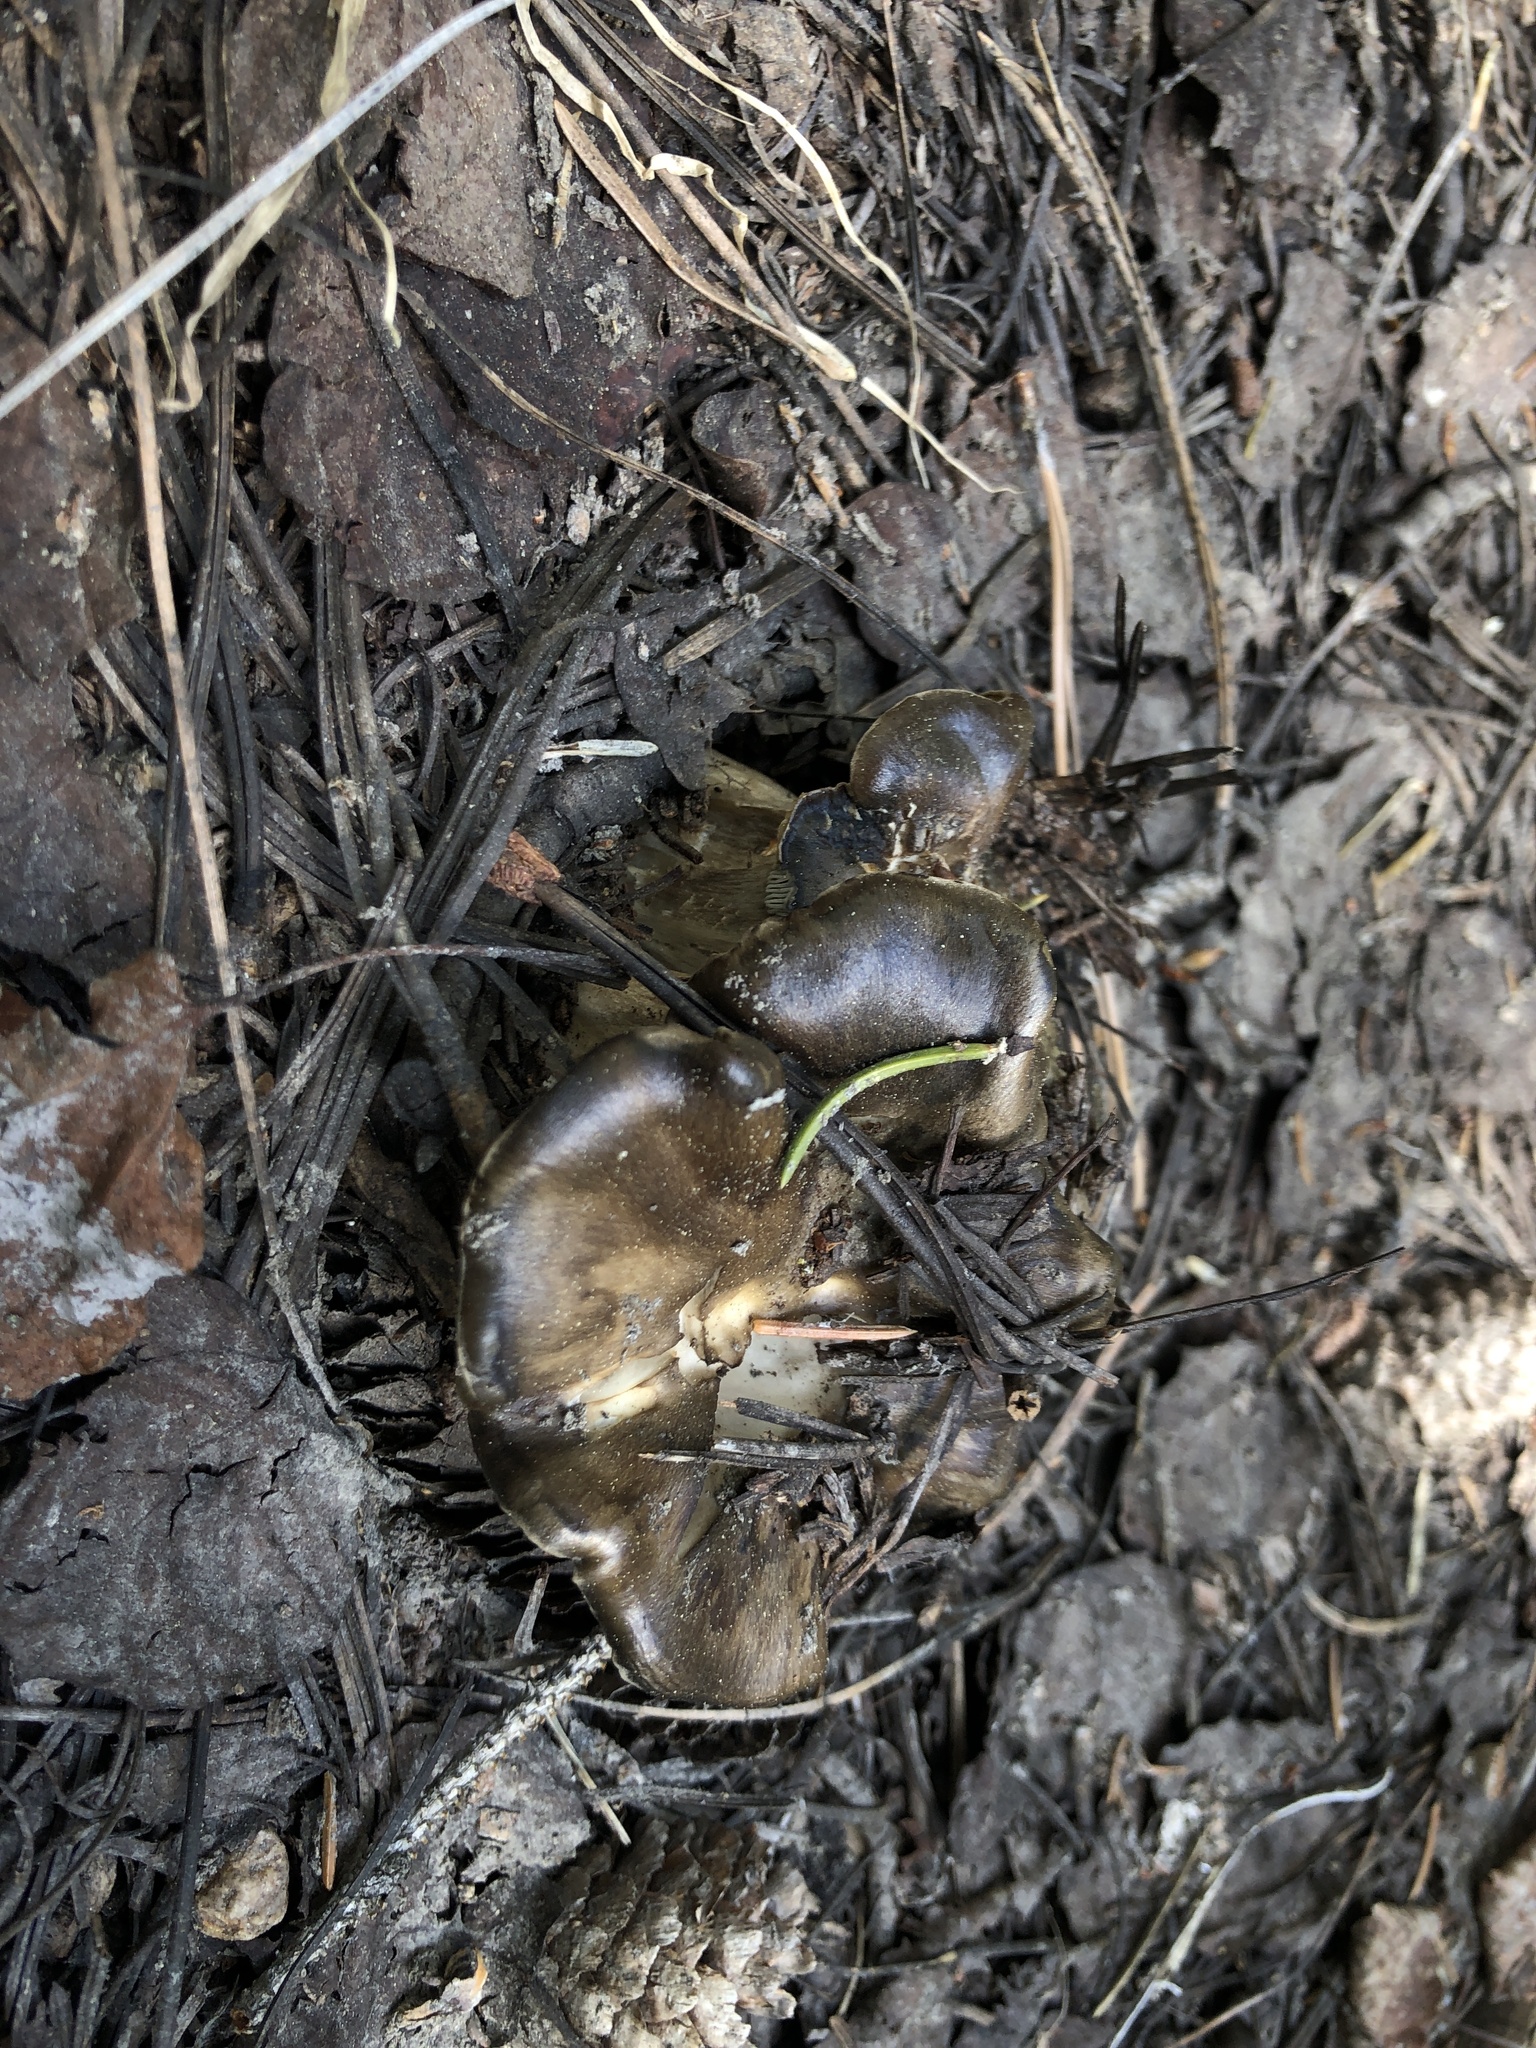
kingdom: Fungi
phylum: Basidiomycota
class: Agaricomycetes
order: Agaricales
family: Hygrophoraceae
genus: Hygrophorus
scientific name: Hygrophorus marzuolus
